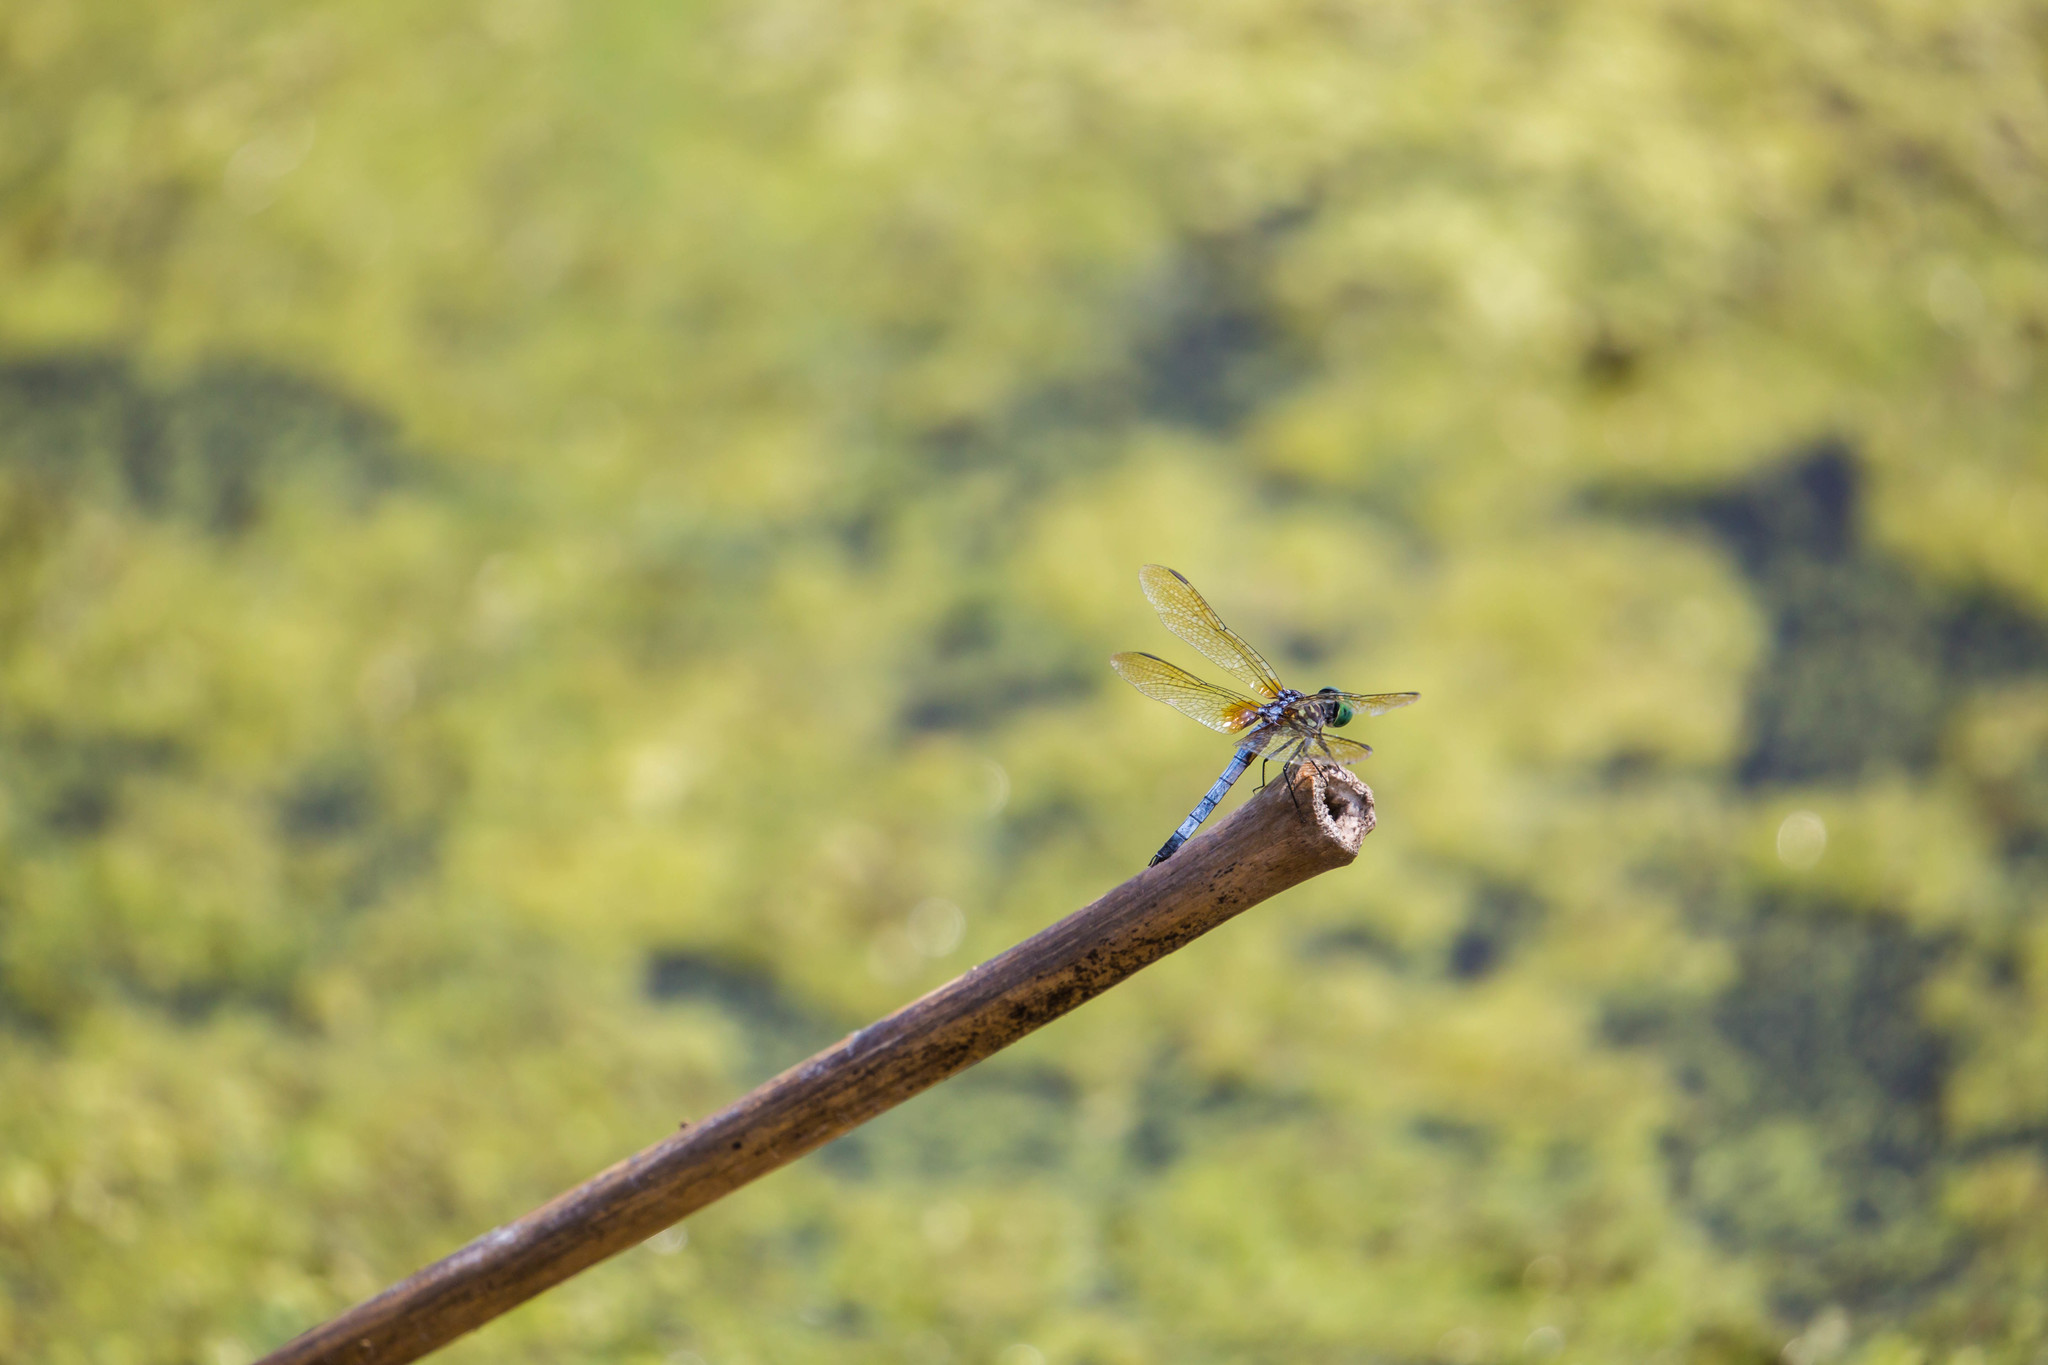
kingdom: Animalia
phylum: Arthropoda
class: Insecta
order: Odonata
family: Libellulidae
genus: Pachydiplax
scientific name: Pachydiplax longipennis
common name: Blue dasher
